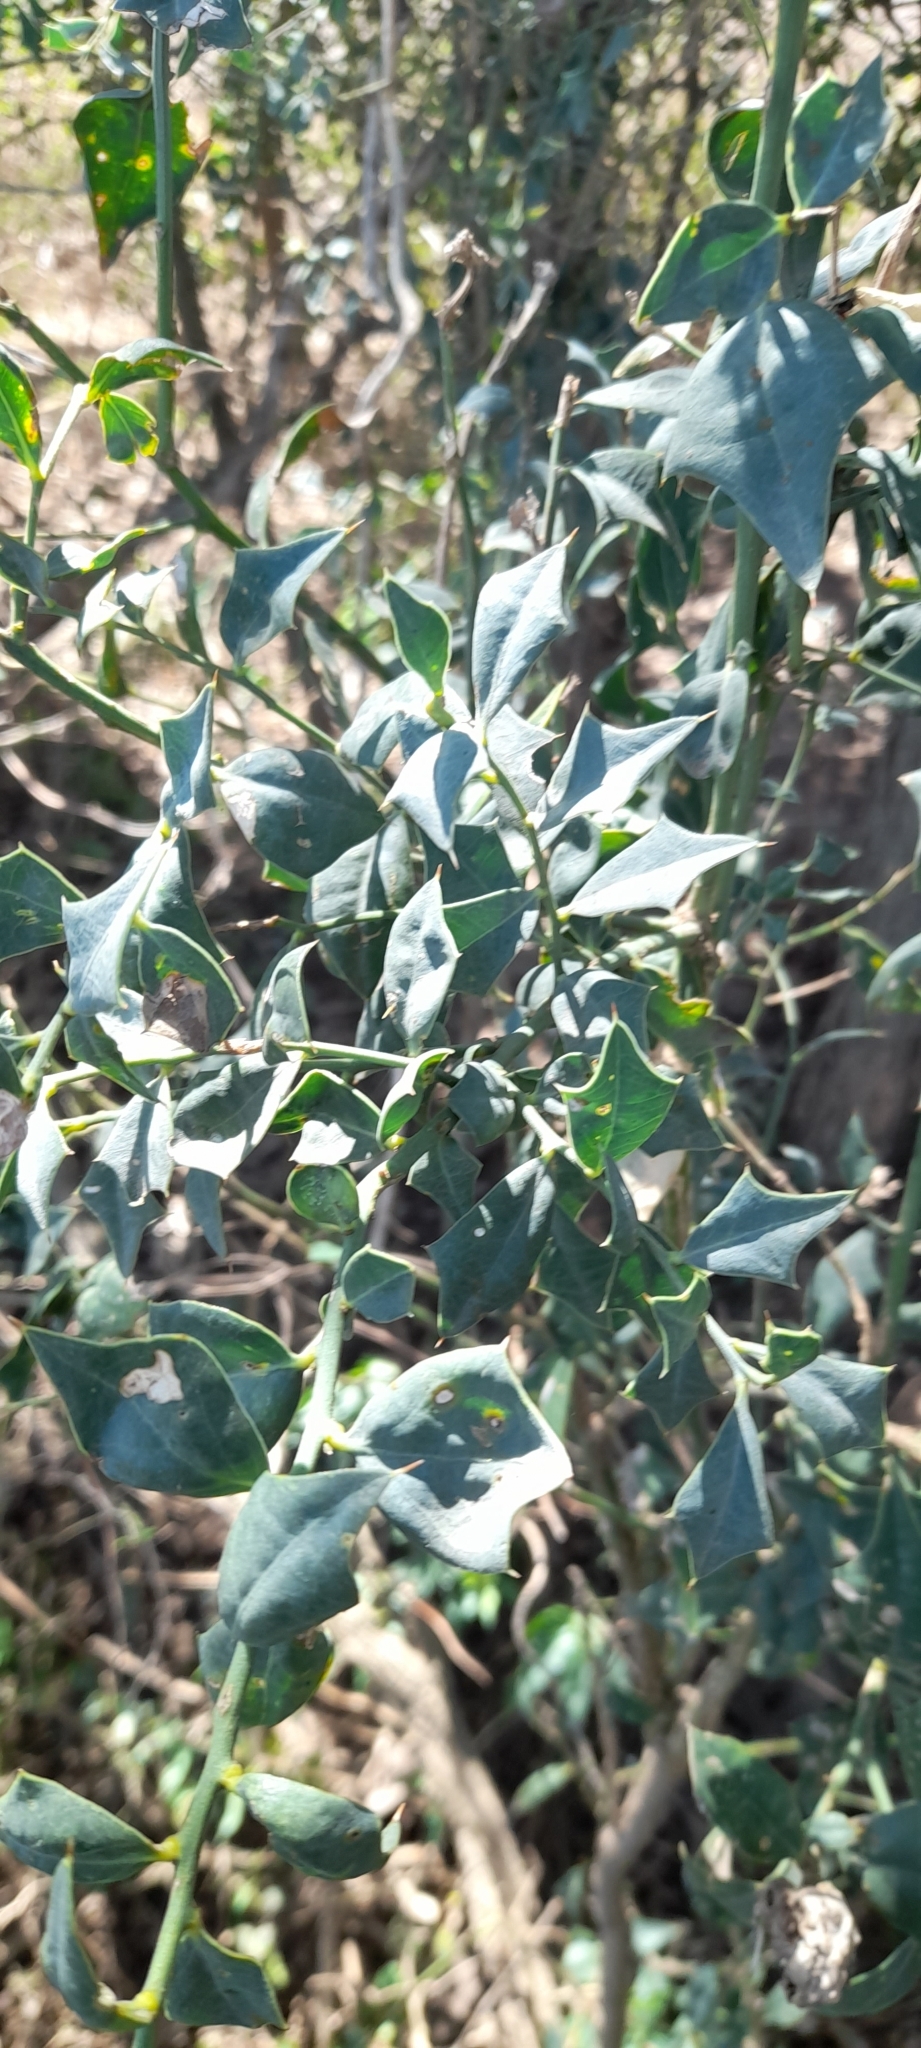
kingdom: Plantae
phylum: Tracheophyta
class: Magnoliopsida
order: Santalales
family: Cervantesiaceae
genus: Jodina
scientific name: Jodina rhombifolia
